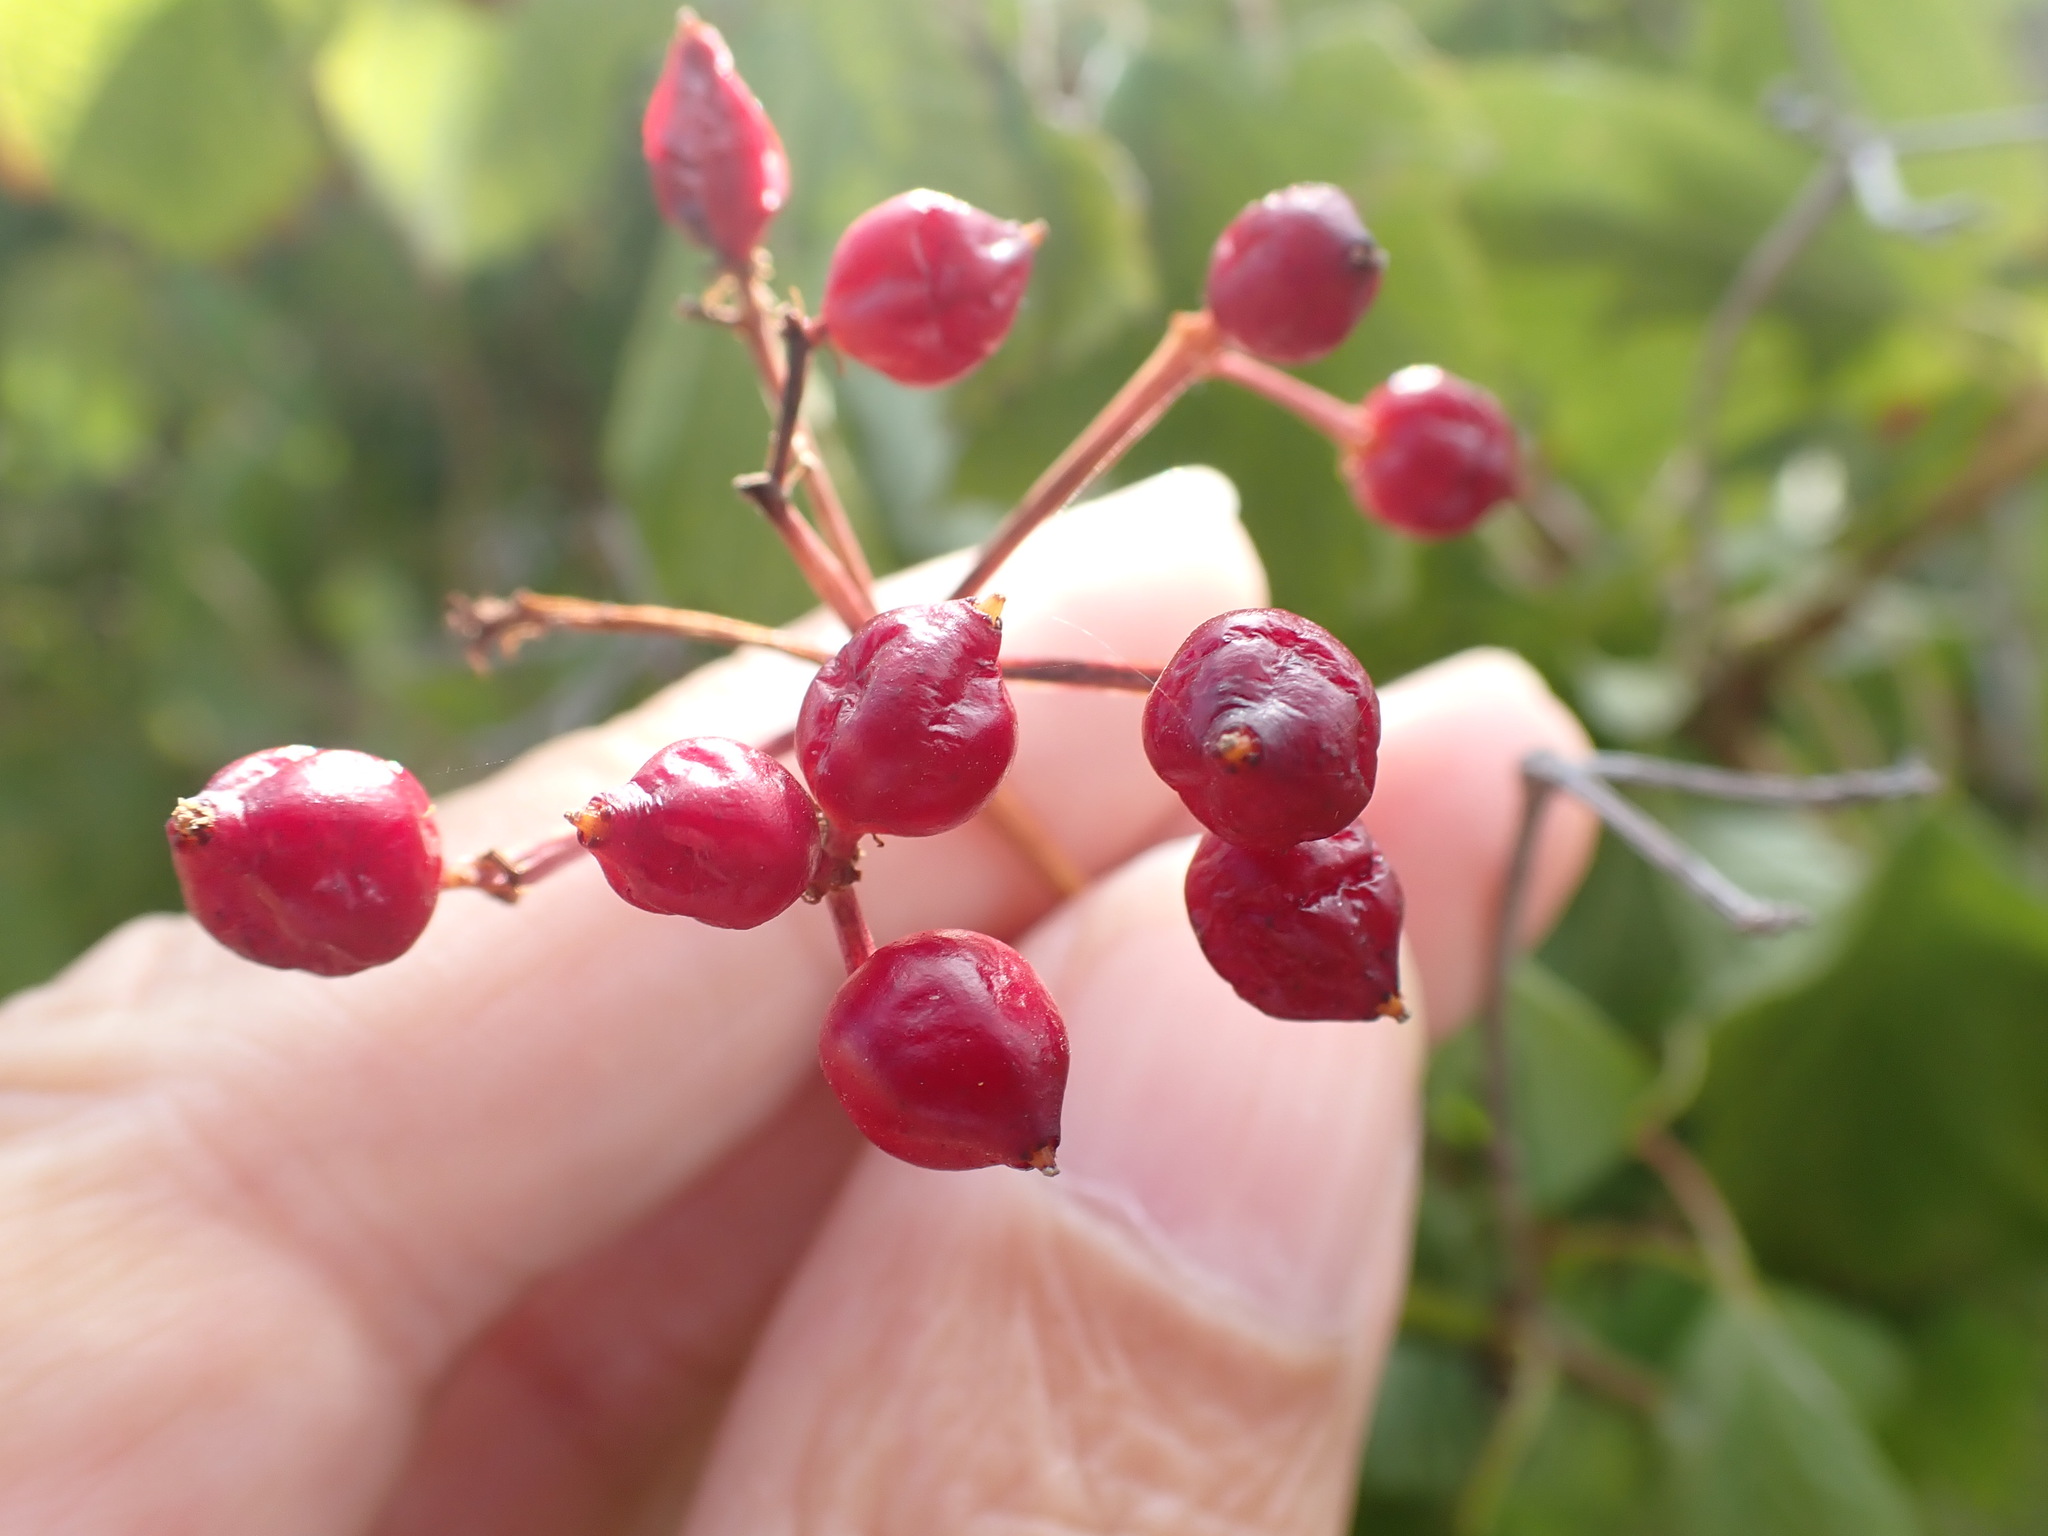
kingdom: Plantae
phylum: Tracheophyta
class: Magnoliopsida
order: Dipsacales
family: Viburnaceae
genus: Viburnum
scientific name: Viburnum opulus
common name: Guelder-rose
